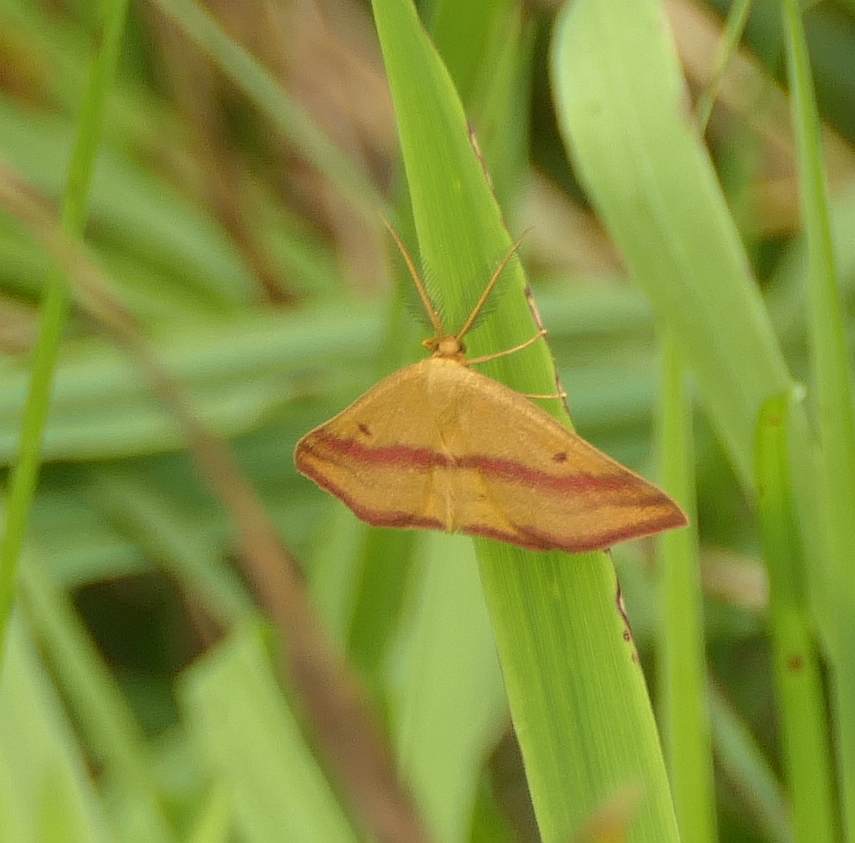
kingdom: Animalia
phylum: Arthropoda
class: Insecta
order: Lepidoptera
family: Geometridae
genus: Haematopis
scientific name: Haematopis grataria
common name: Chickweed geometer
